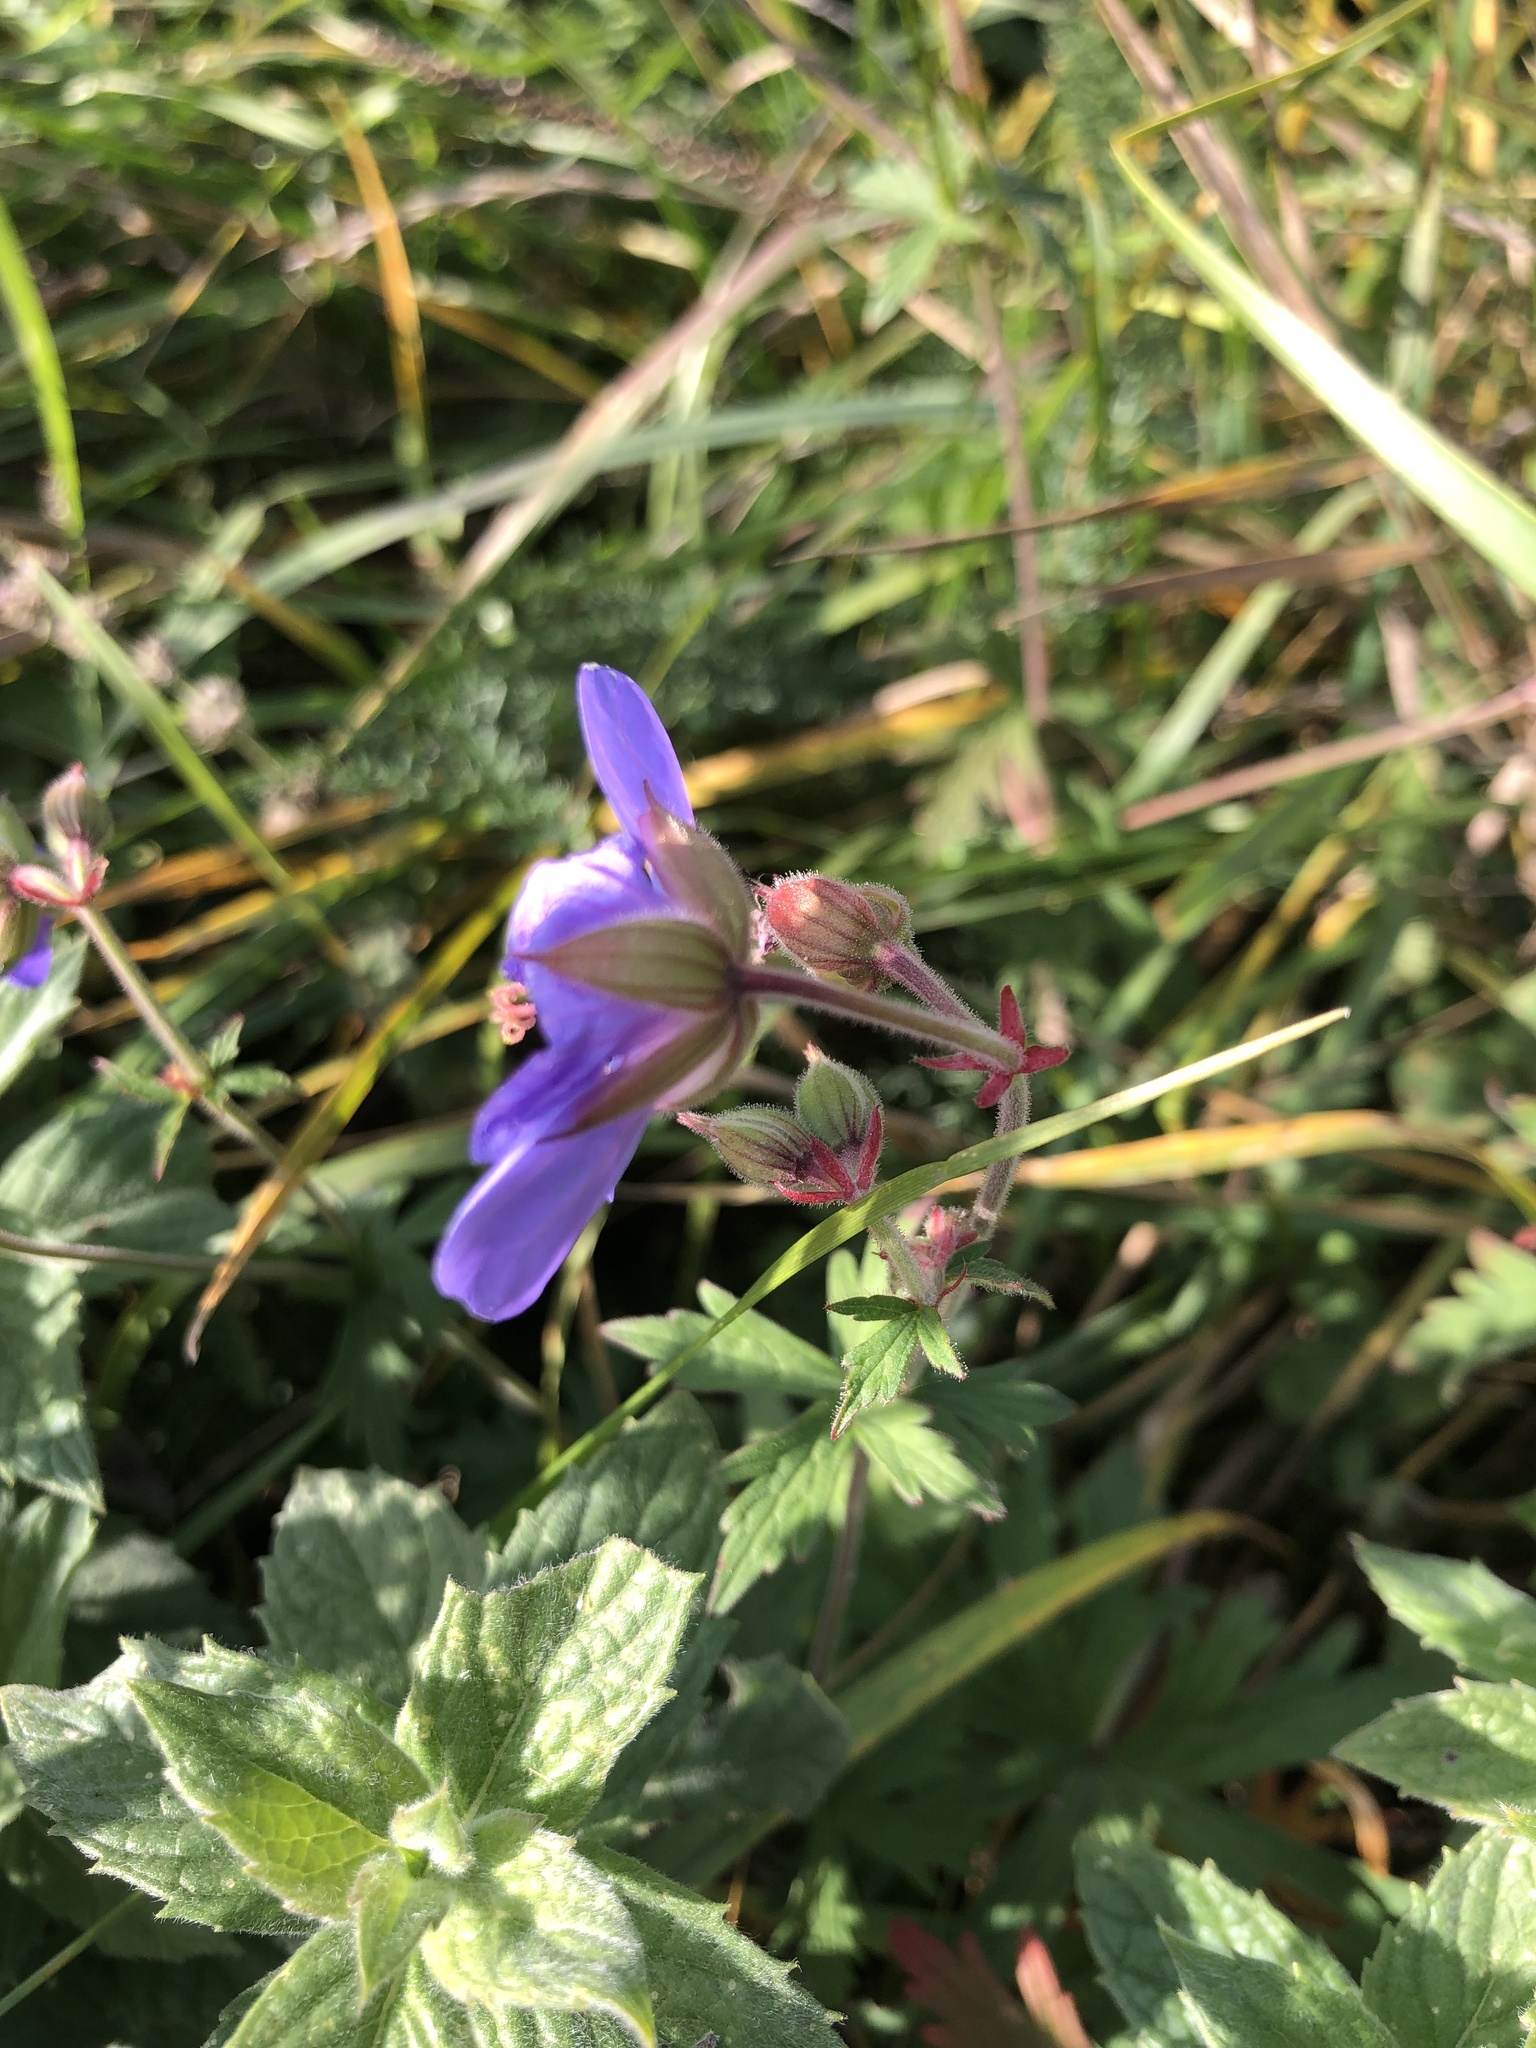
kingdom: Plantae
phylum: Tracheophyta
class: Magnoliopsida
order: Geraniales
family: Geraniaceae
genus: Geranium
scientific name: Geranium pratense
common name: Meadow crane's-bill
